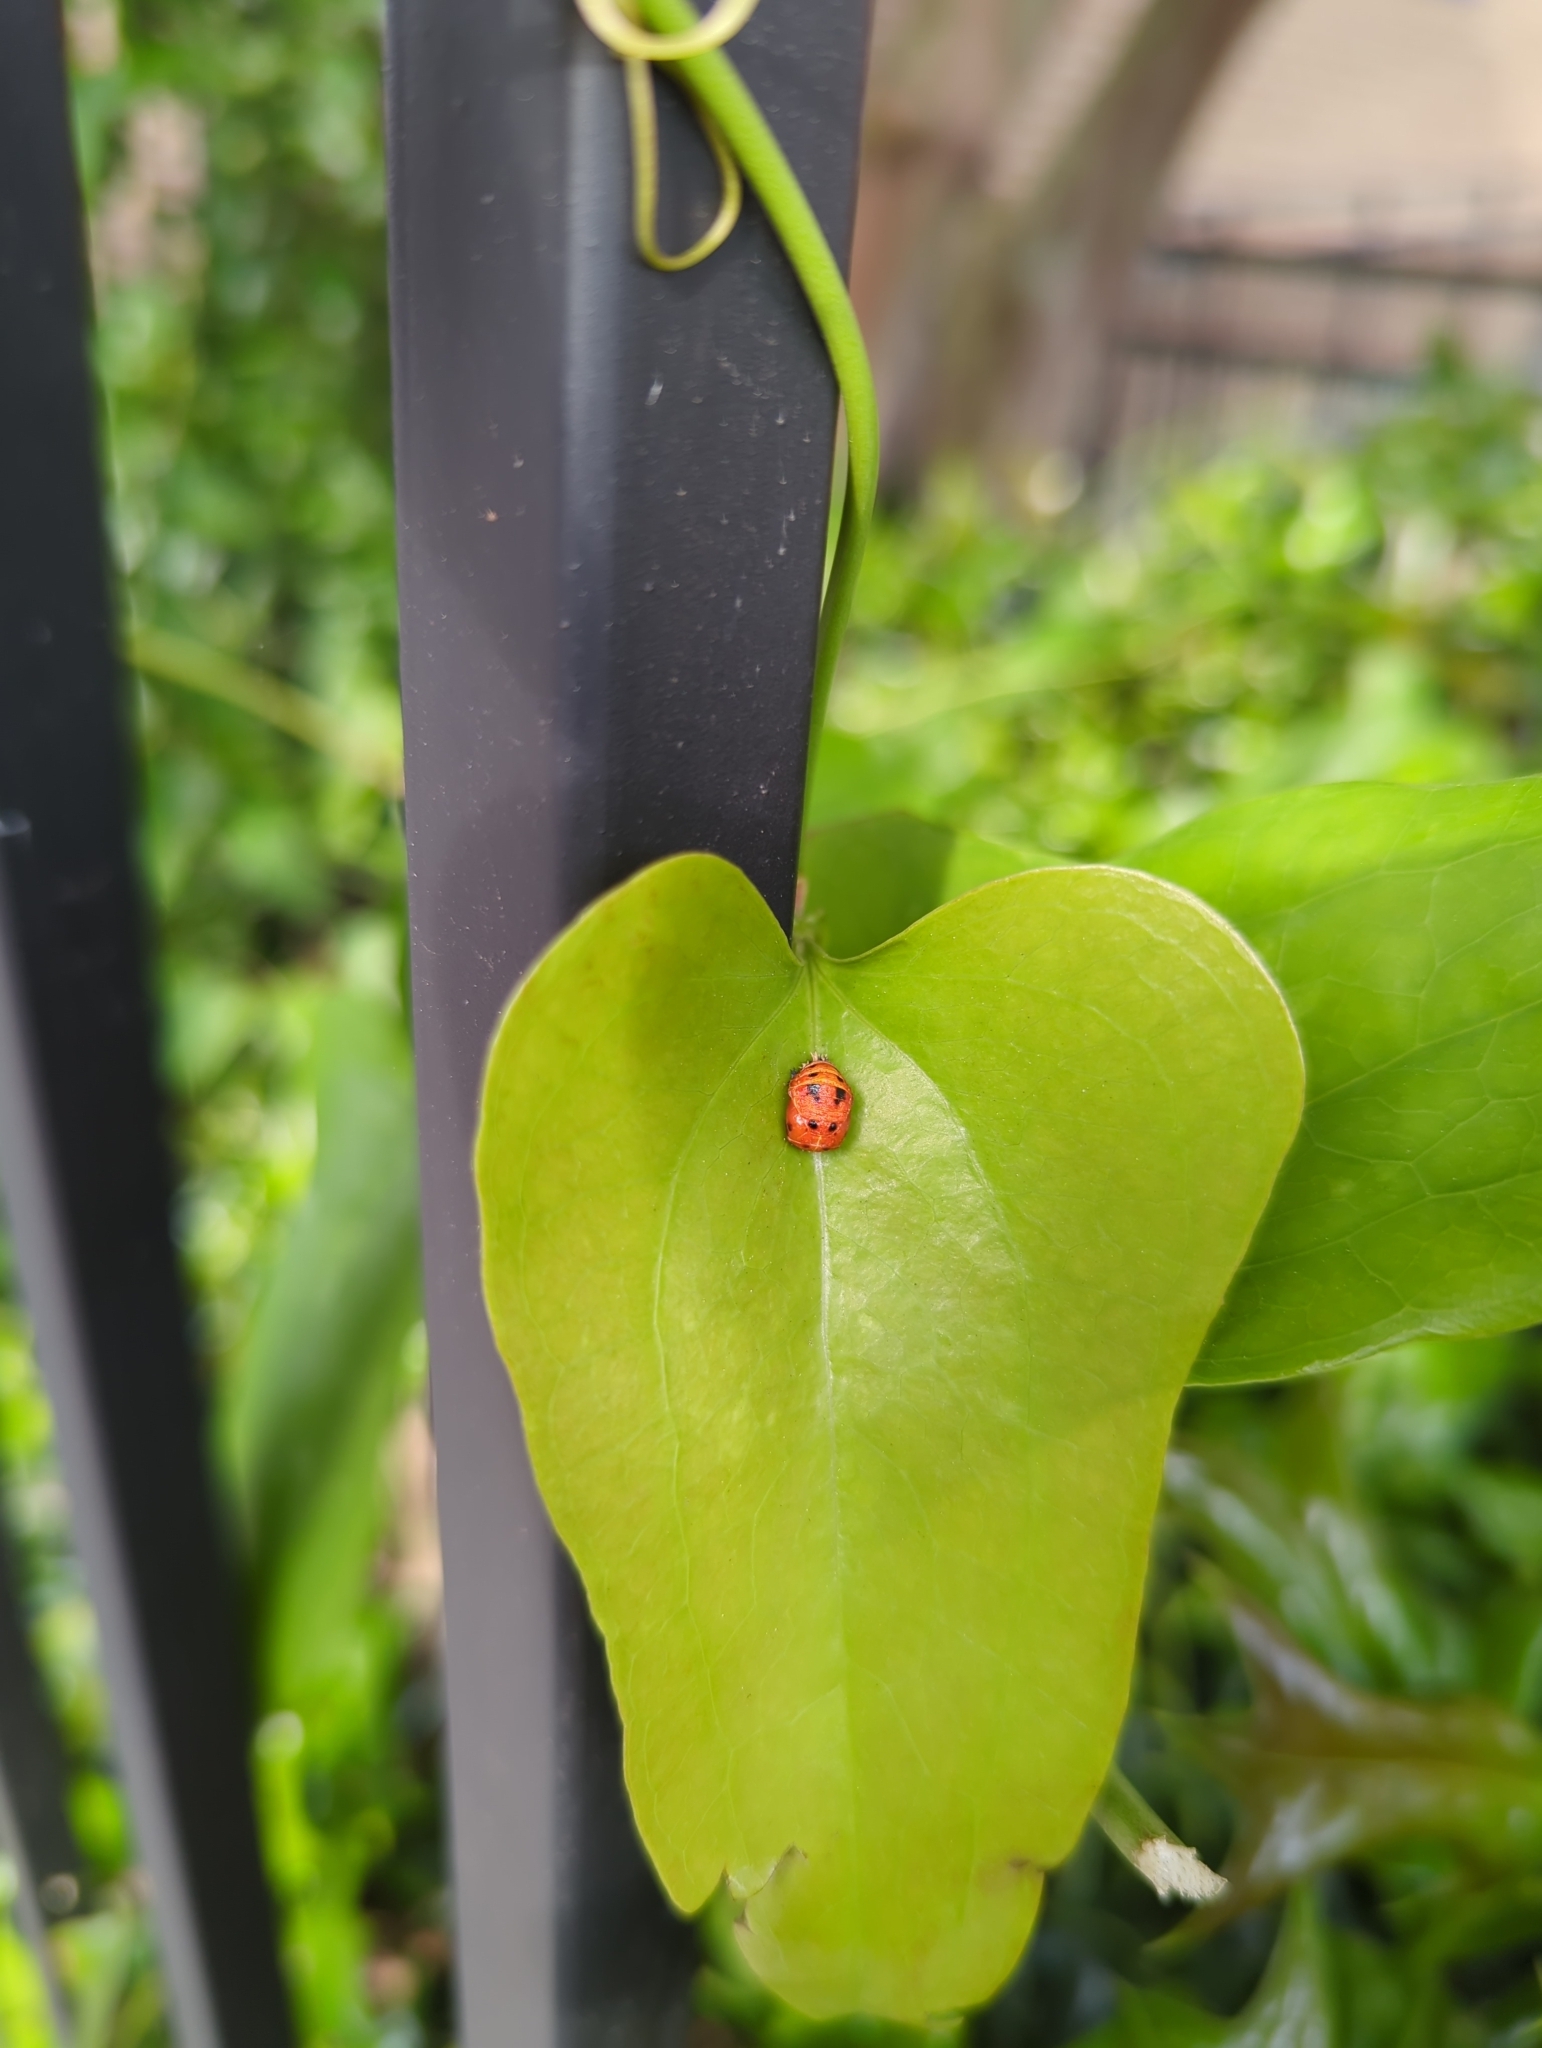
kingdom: Animalia
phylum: Arthropoda
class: Insecta
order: Coleoptera
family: Coccinellidae
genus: Harmonia
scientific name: Harmonia axyridis
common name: Harlequin ladybird
